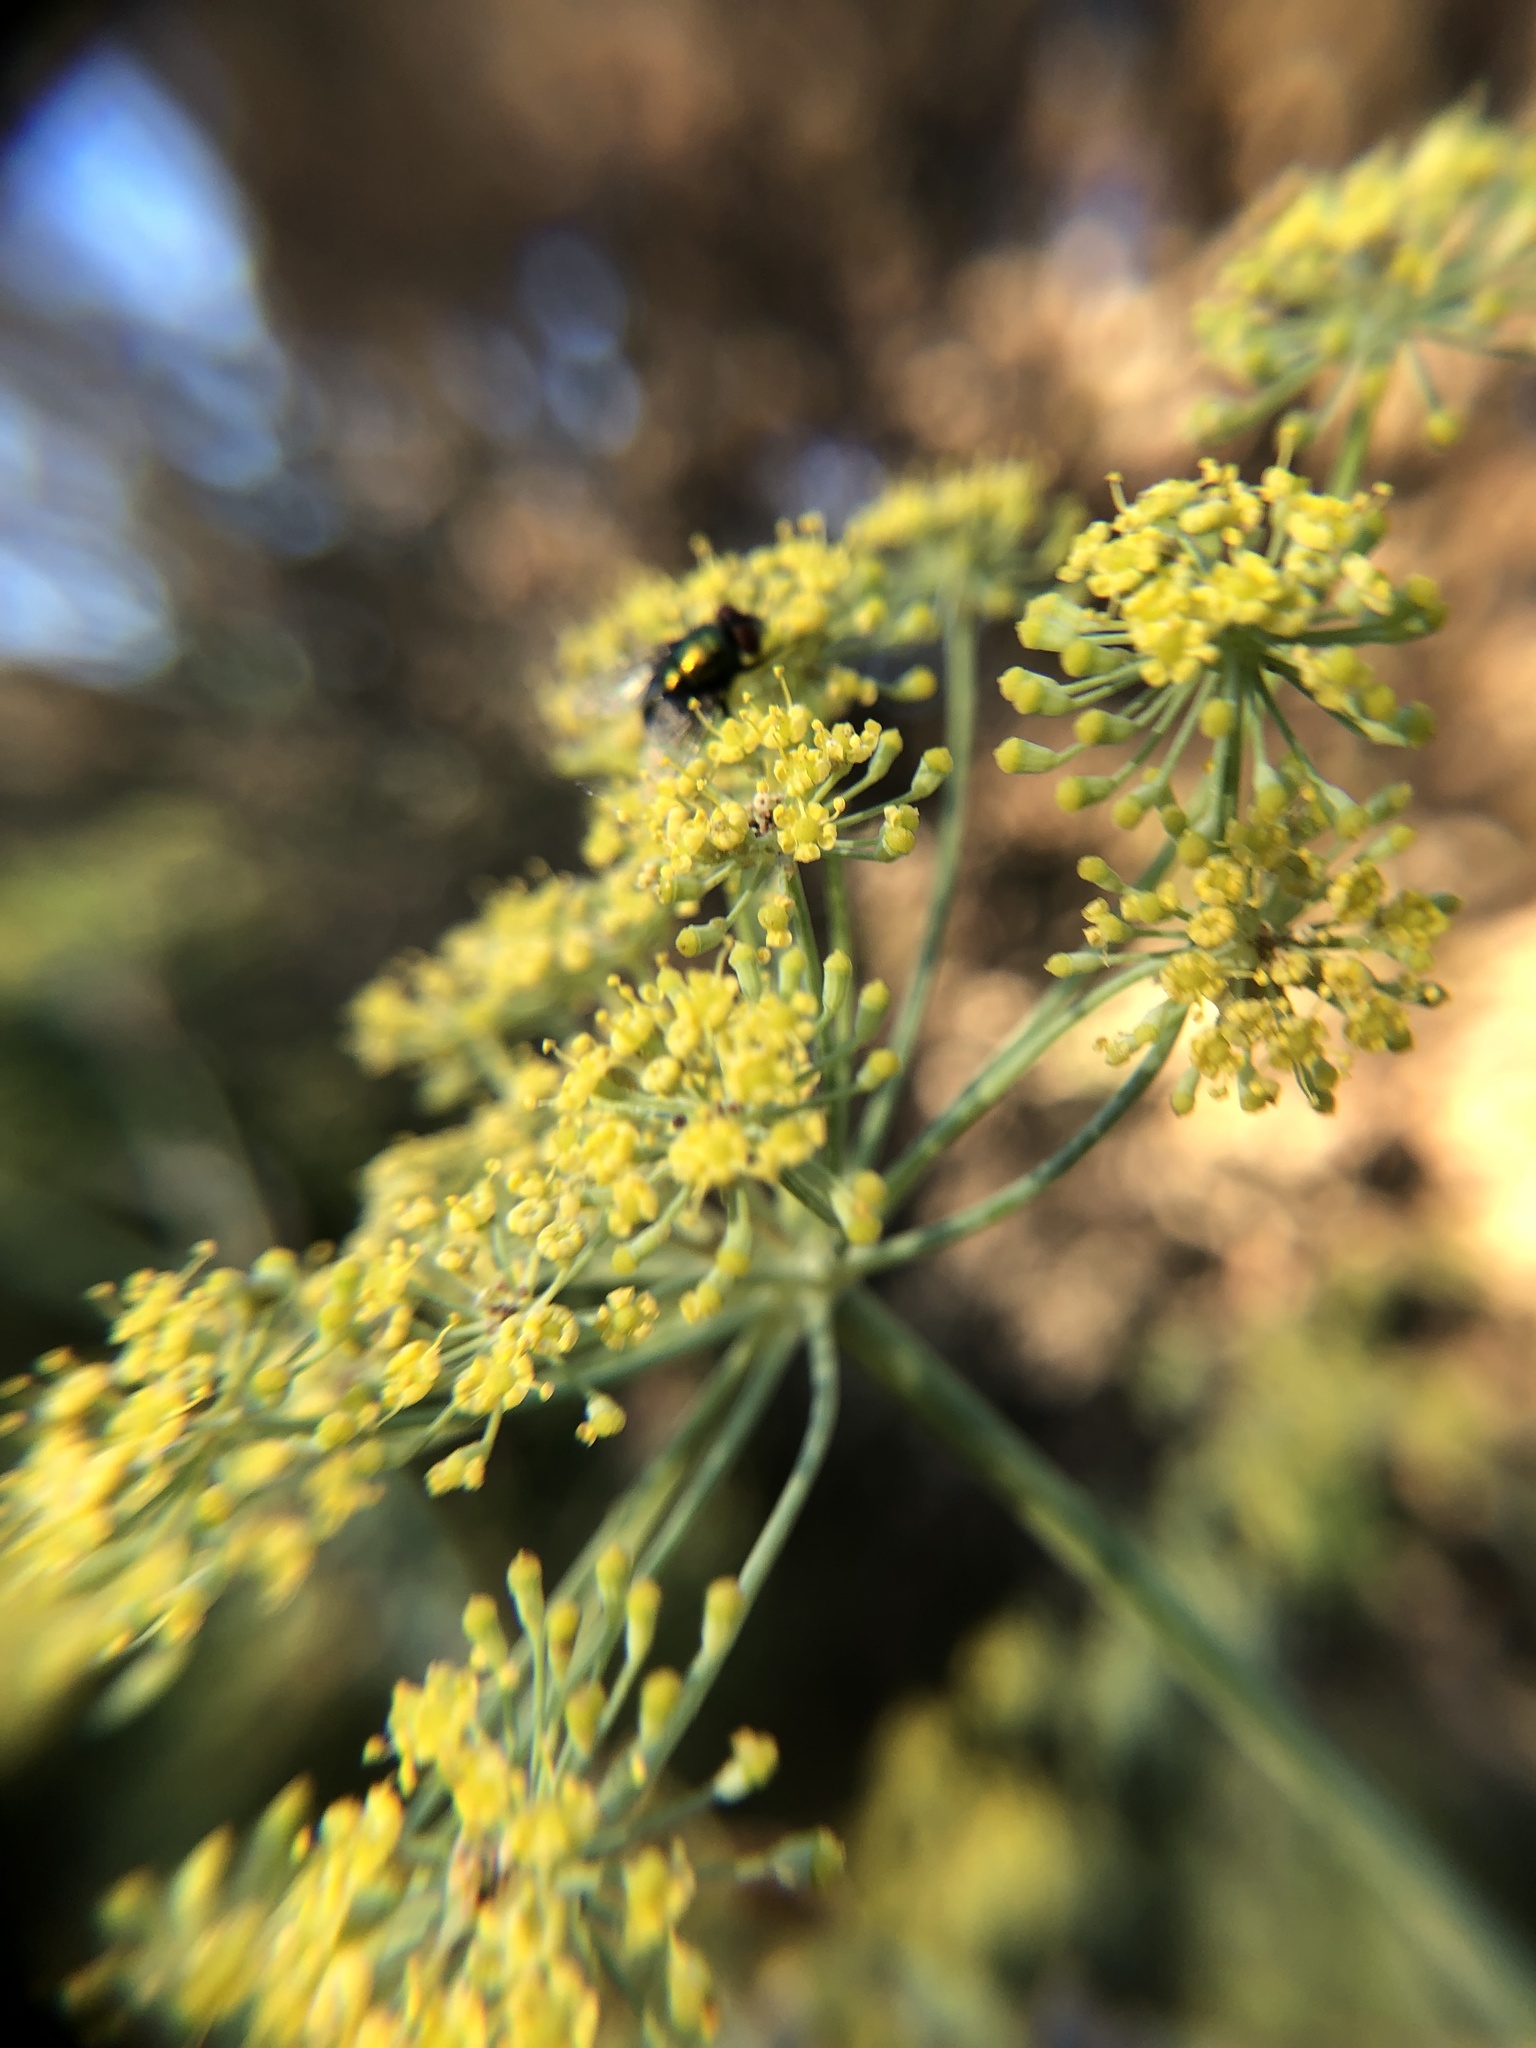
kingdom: Plantae
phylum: Tracheophyta
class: Magnoliopsida
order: Apiales
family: Apiaceae
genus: Foeniculum
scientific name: Foeniculum vulgare
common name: Fennel
